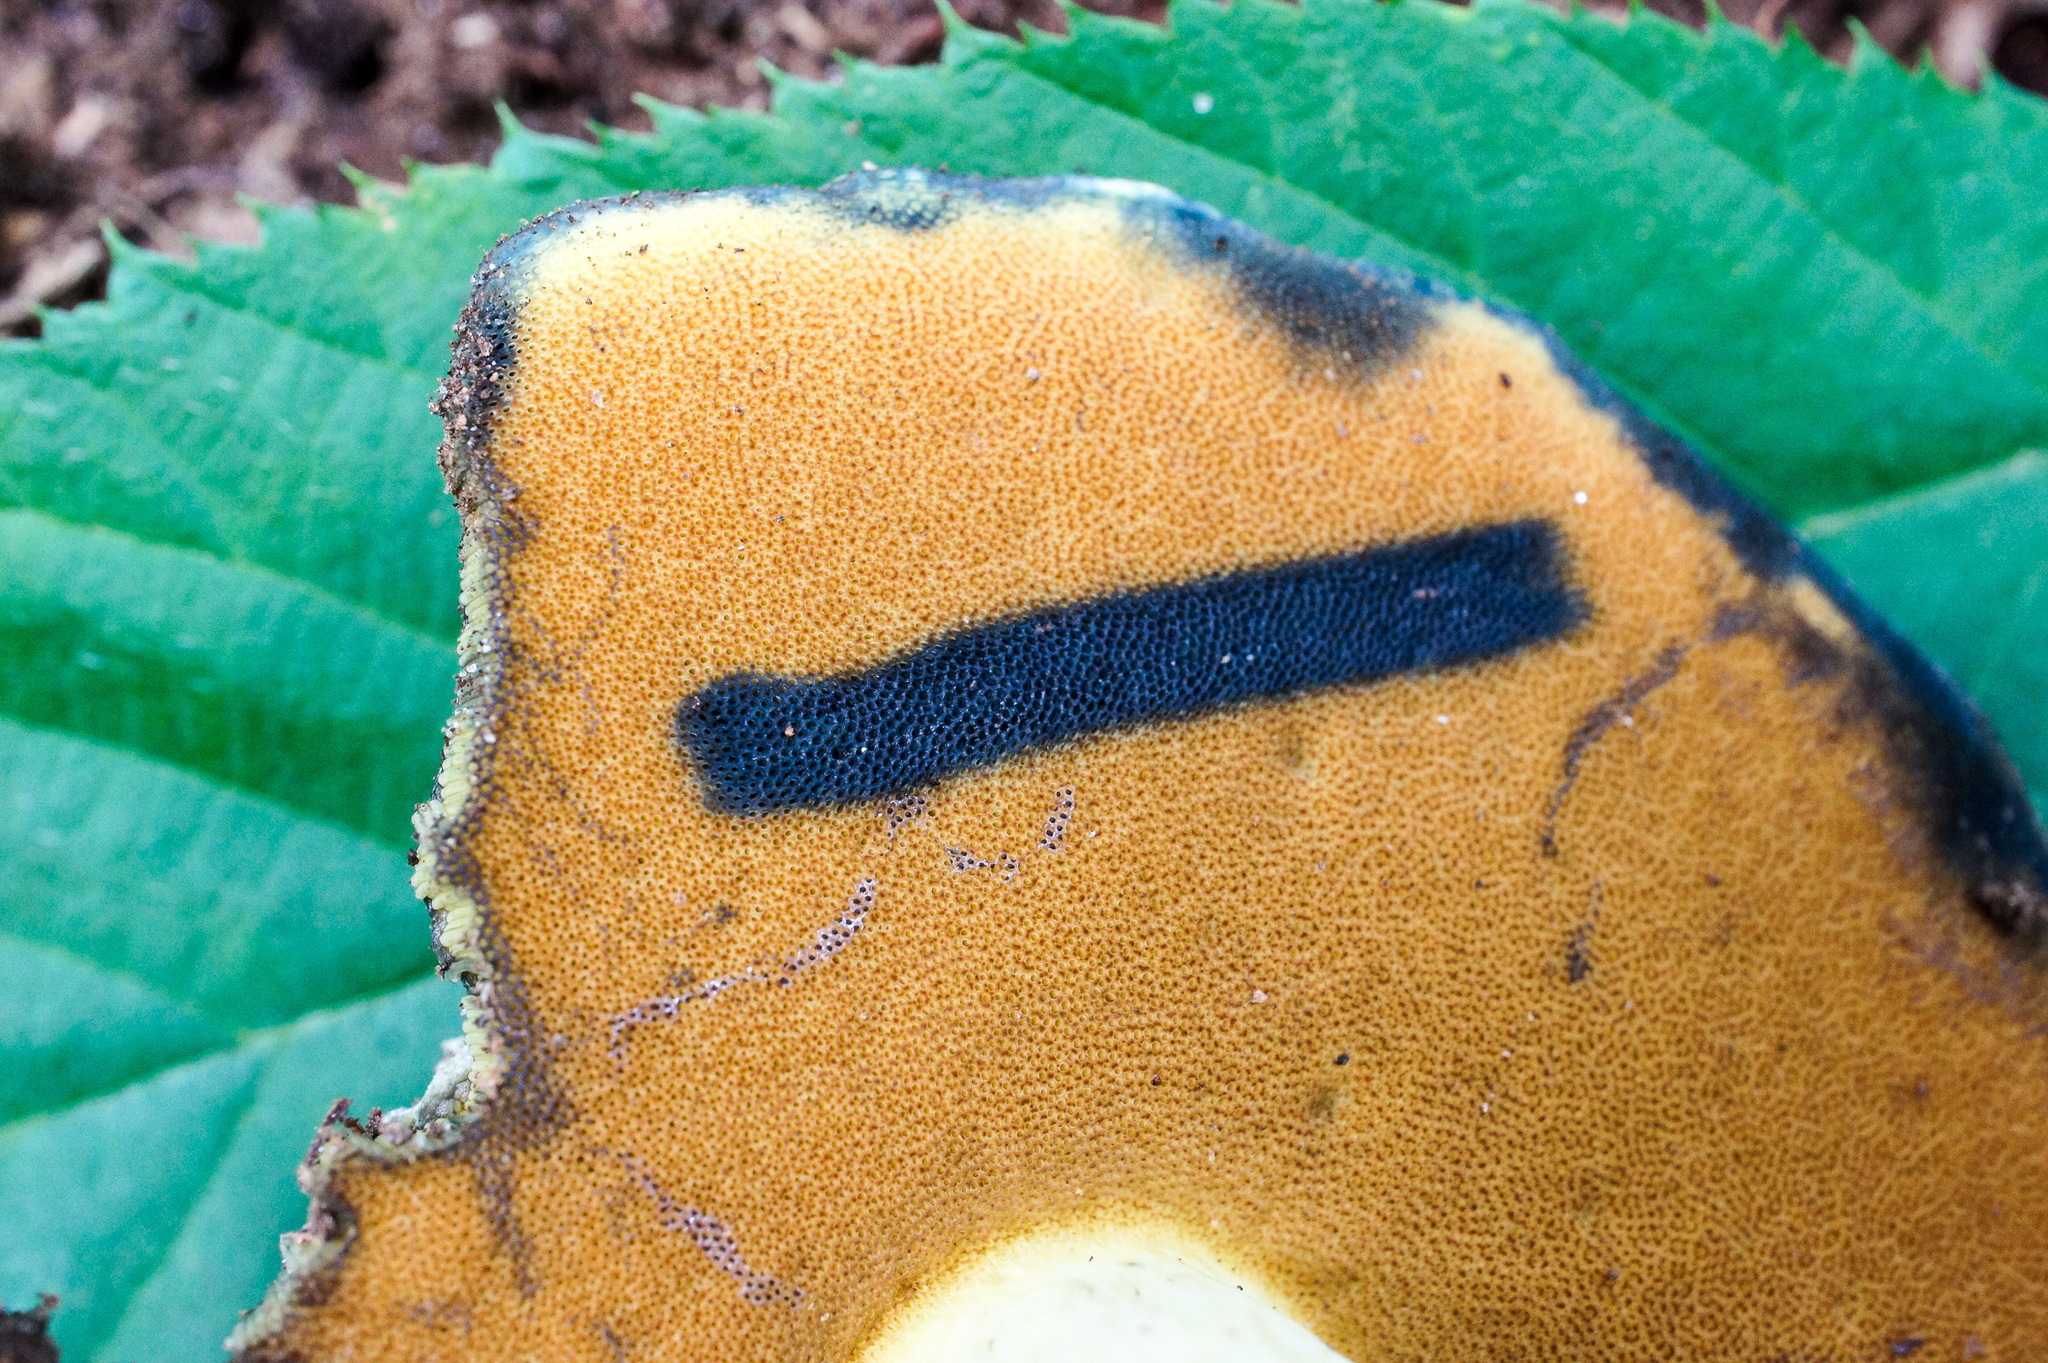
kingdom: Fungi
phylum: Basidiomycota
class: Agaricomycetes
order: Boletales
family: Boletaceae
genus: Boletus
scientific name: Boletus vermiculosoides
